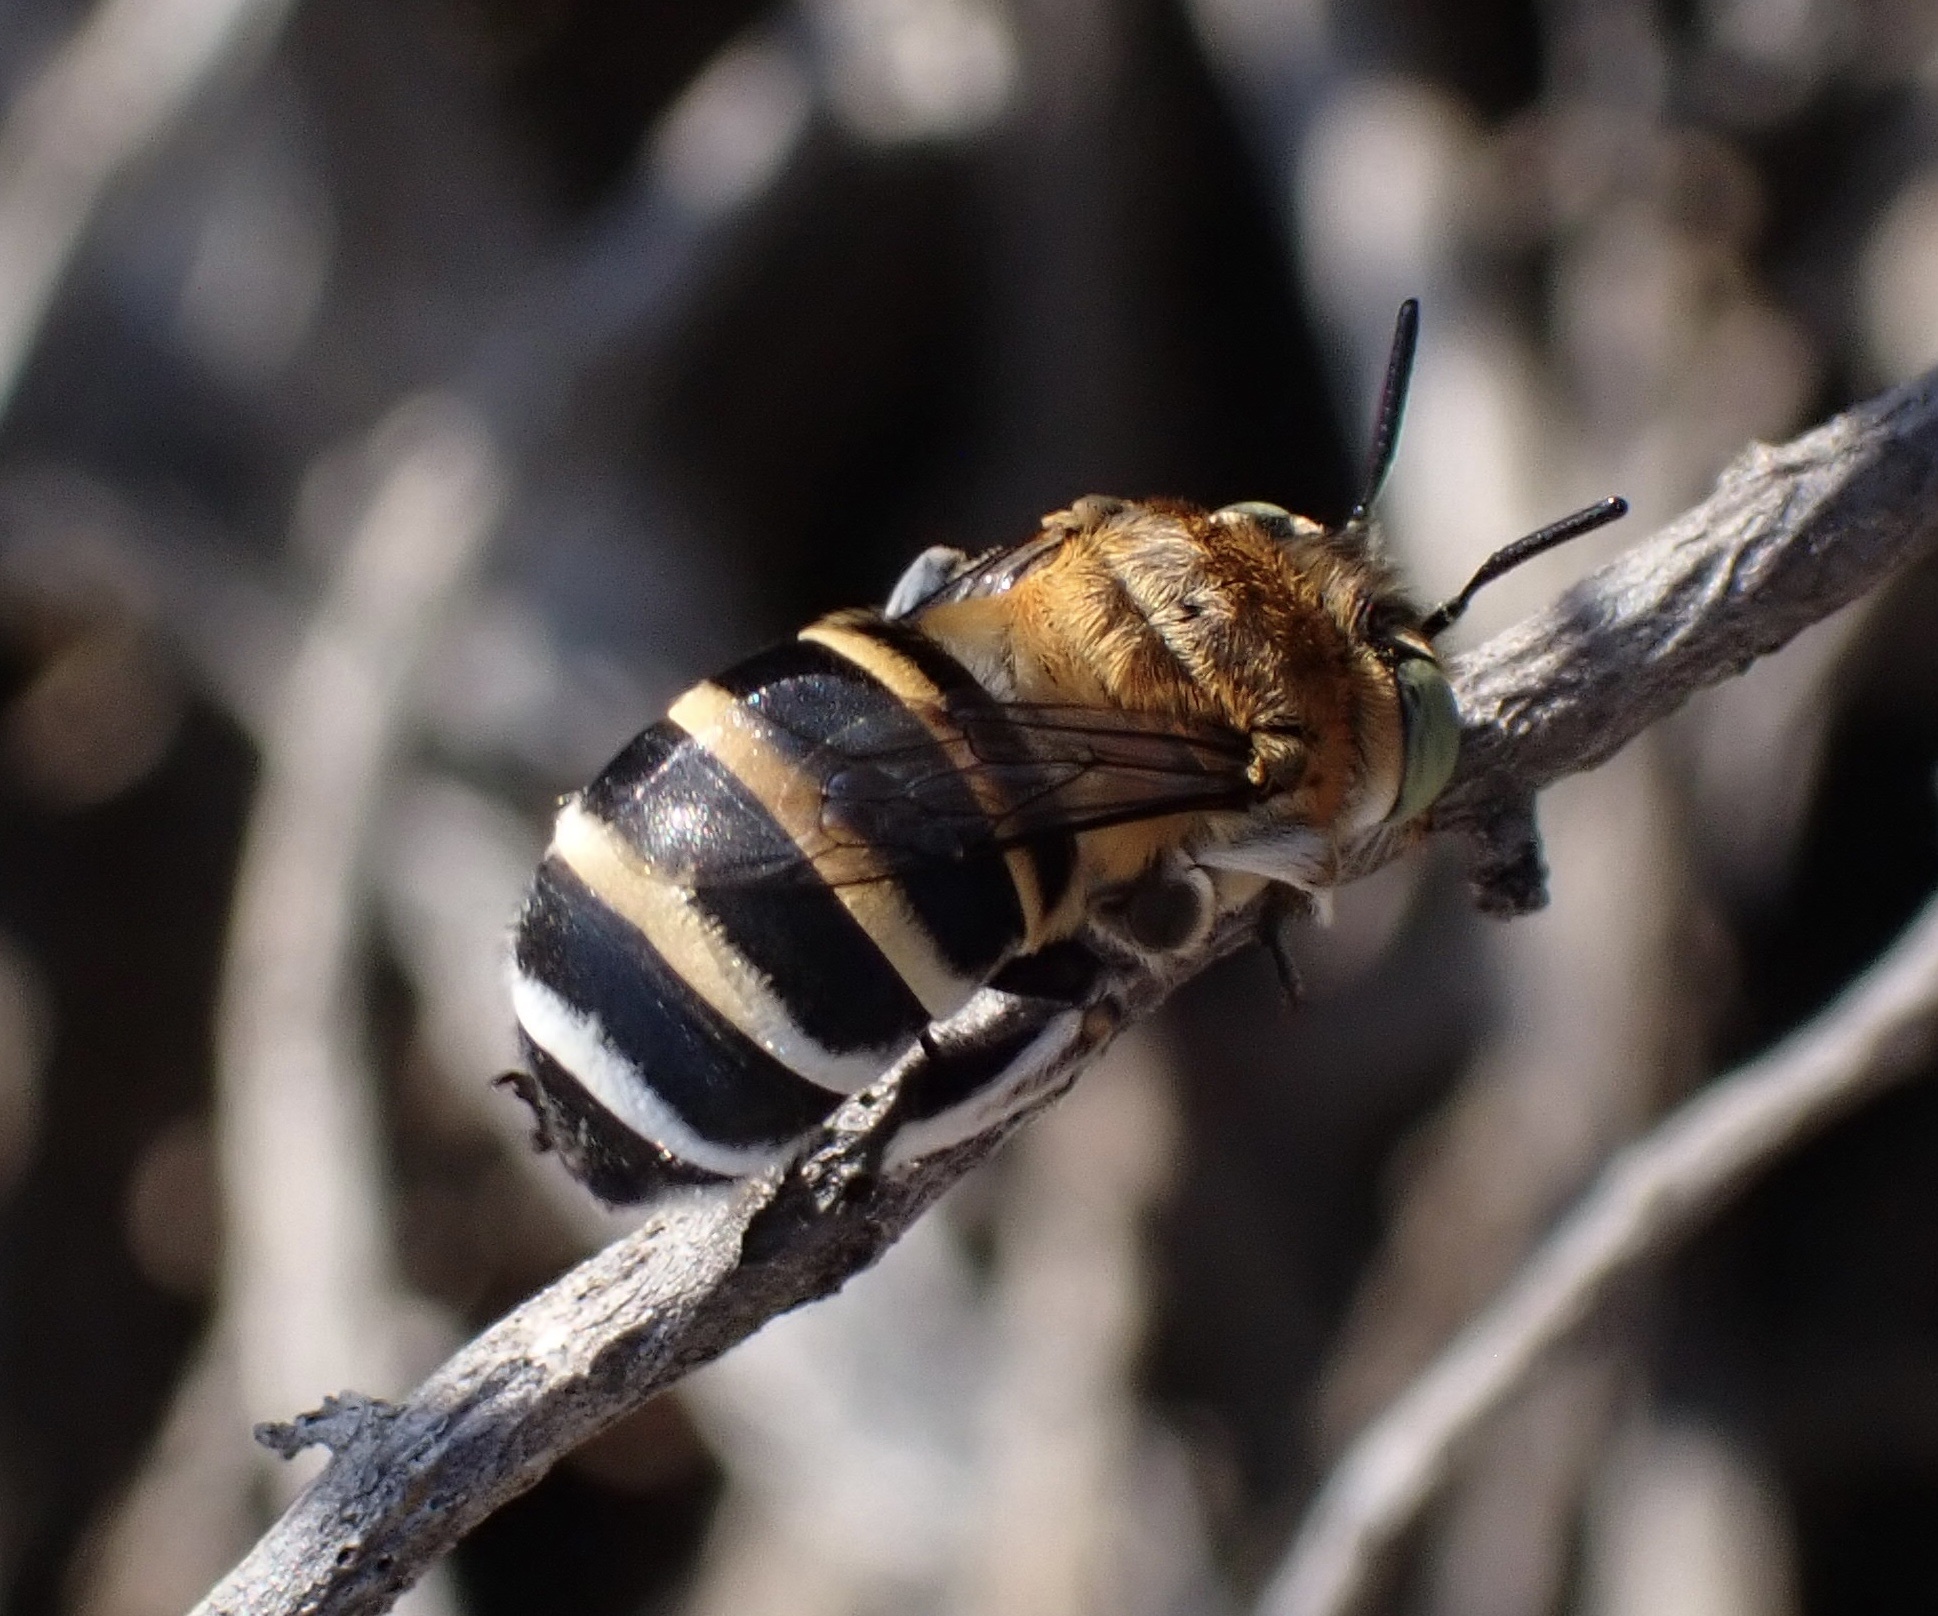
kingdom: Animalia
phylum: Arthropoda
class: Insecta
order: Hymenoptera
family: Apidae
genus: Amegilla
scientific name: Amegilla quadrifasciata
